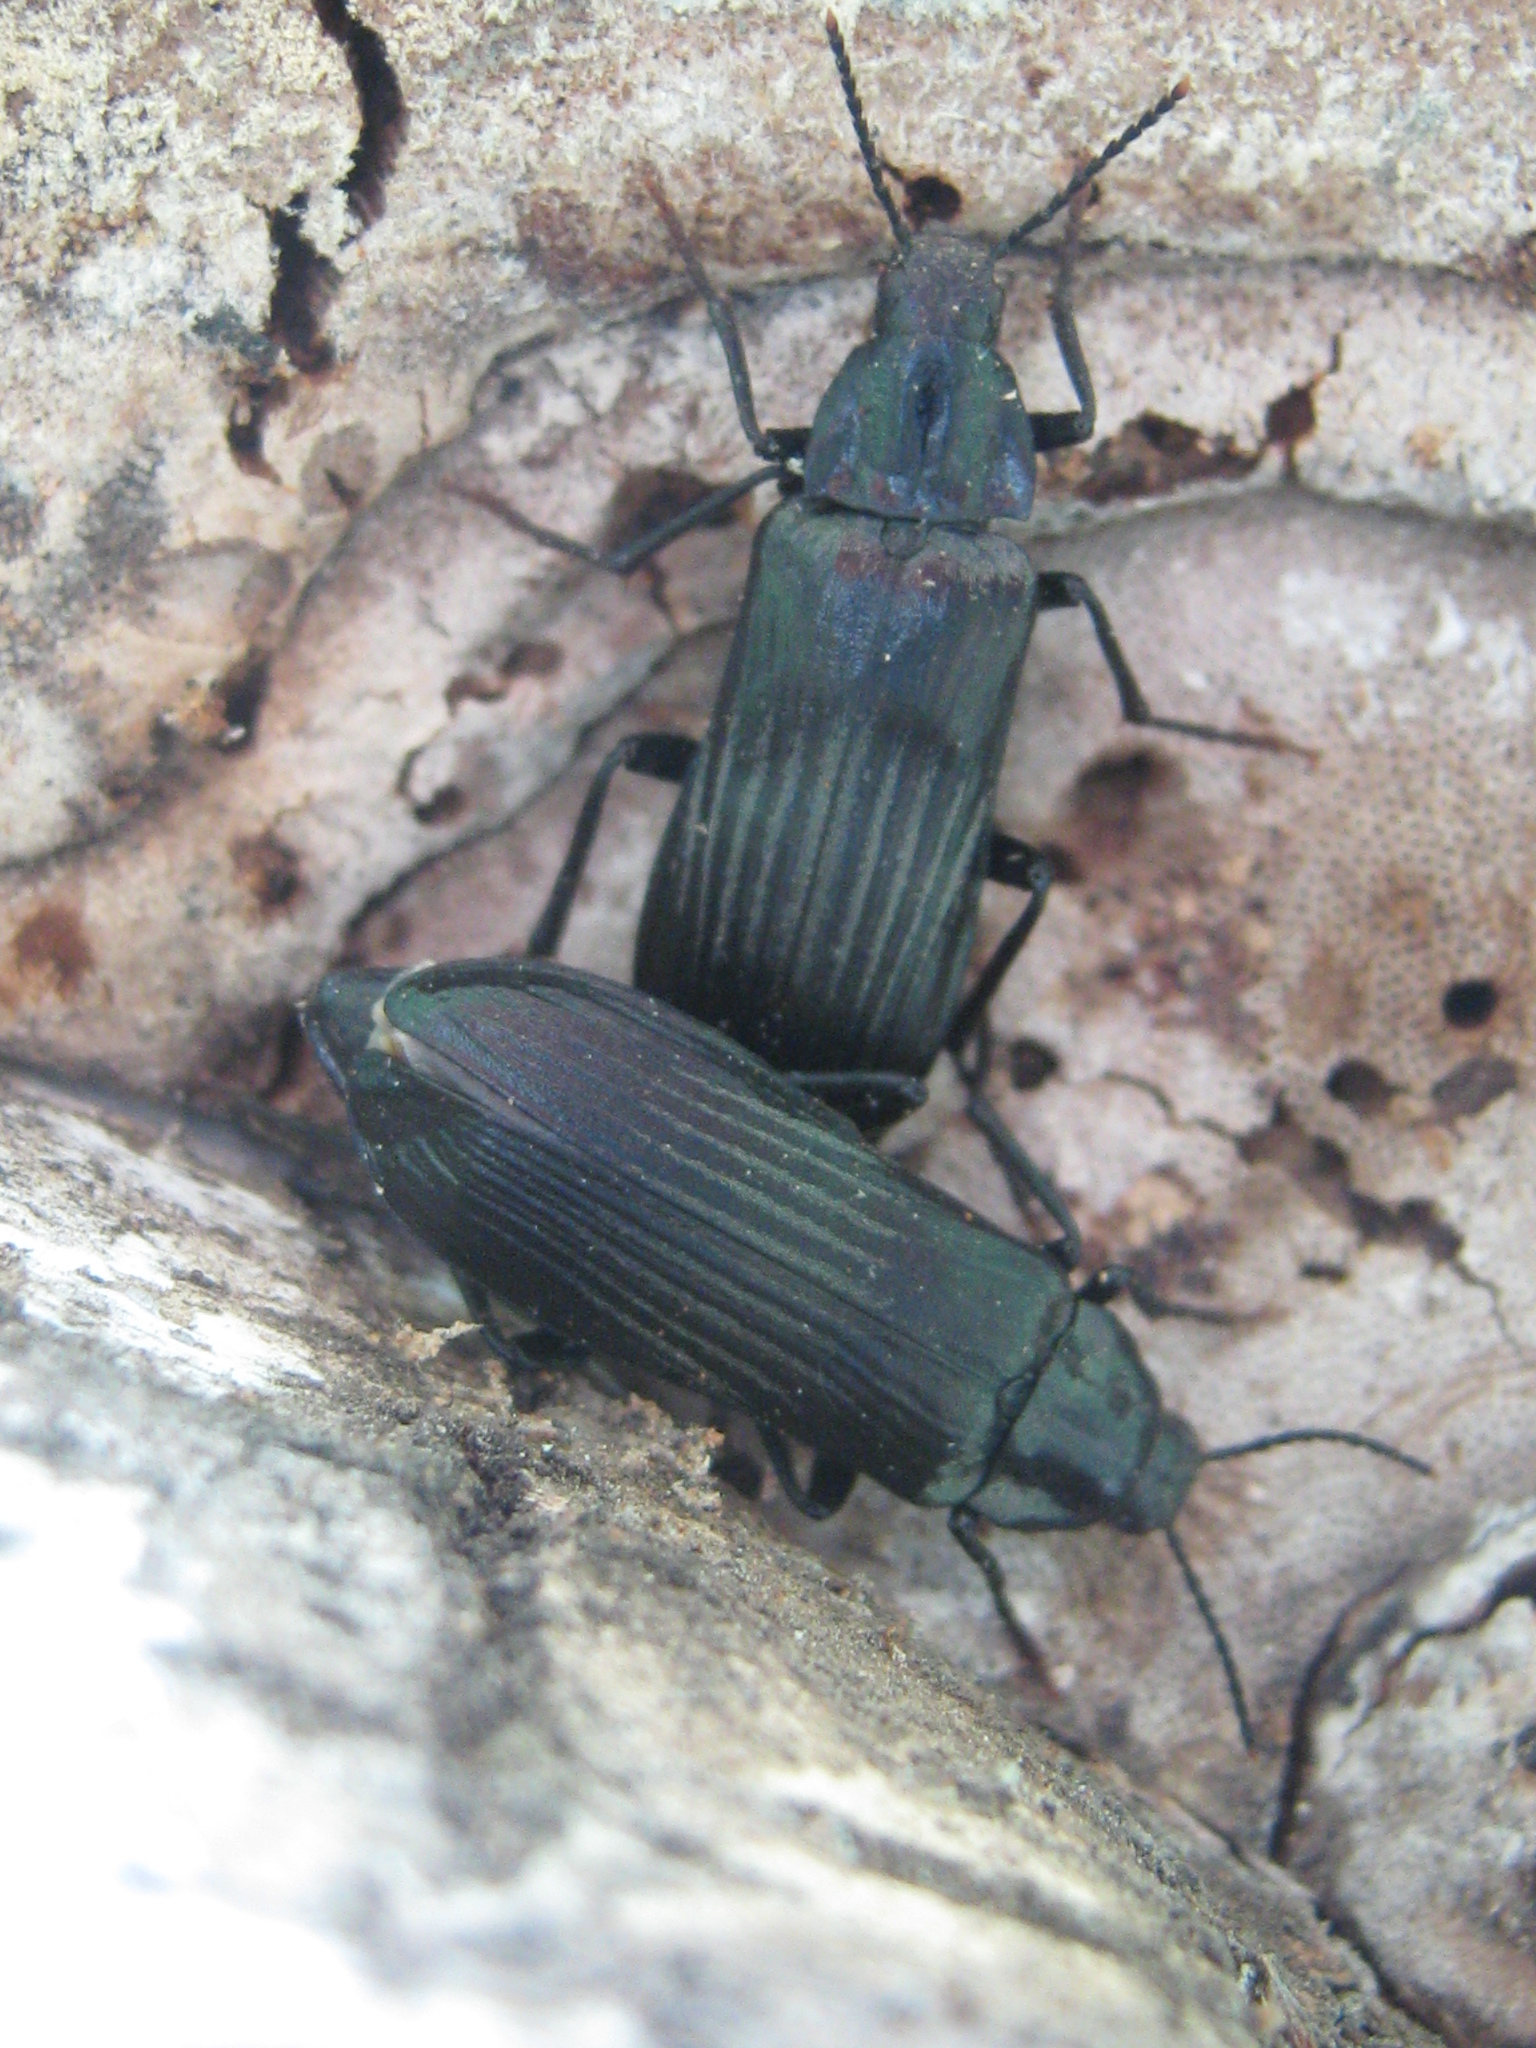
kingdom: Animalia
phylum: Arthropoda
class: Insecta
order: Coleoptera
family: Melandryidae
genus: Melandrya
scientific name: Melandrya dubia
